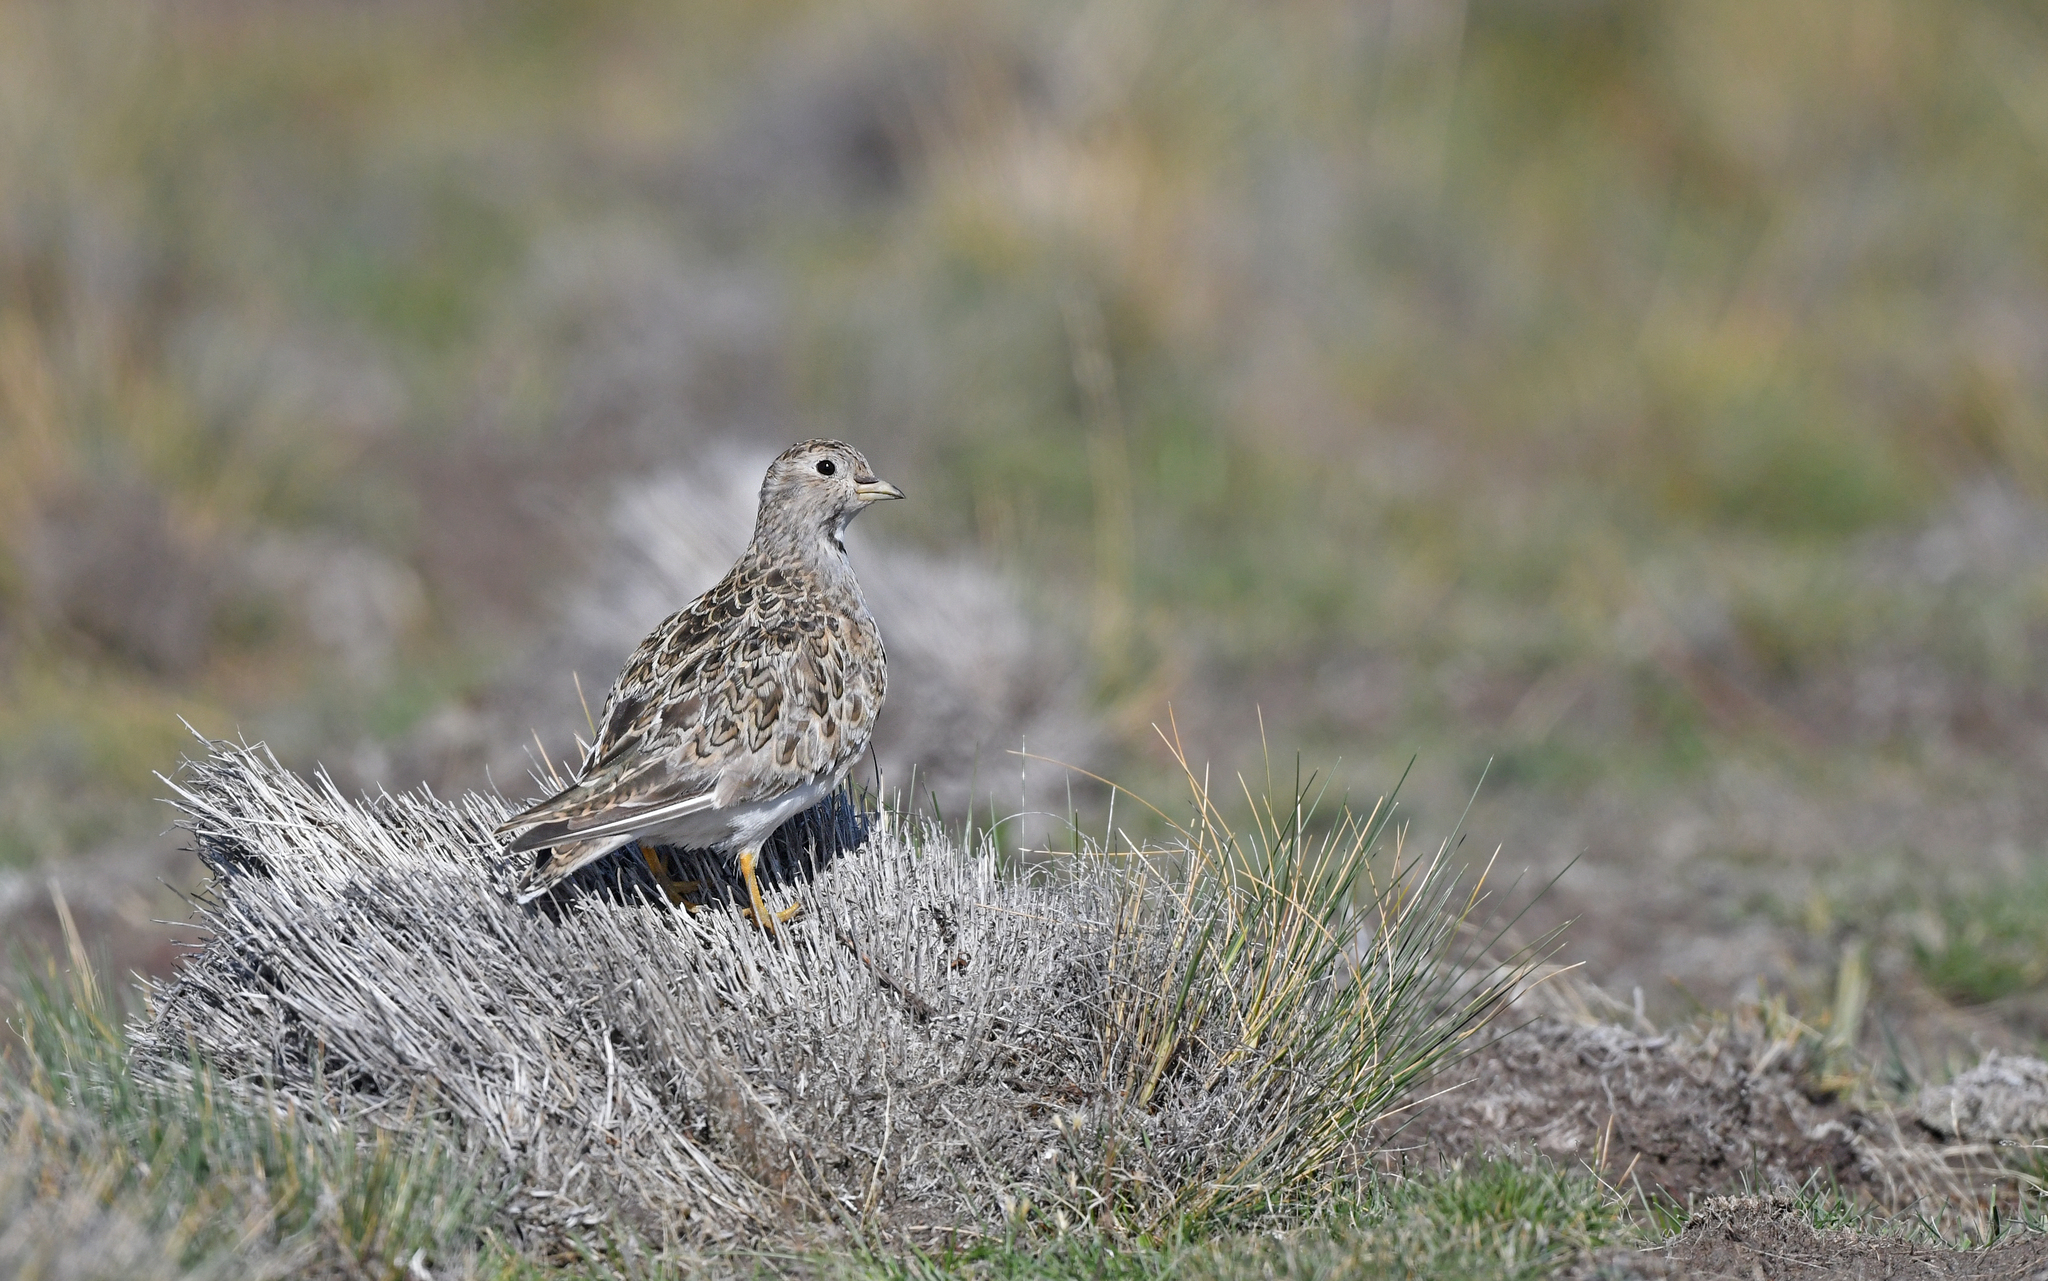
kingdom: Animalia
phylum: Chordata
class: Aves
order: Charadriiformes
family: Thinocoridae
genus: Thinocorus
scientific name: Thinocorus rumicivorus
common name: Least seedsnipe
